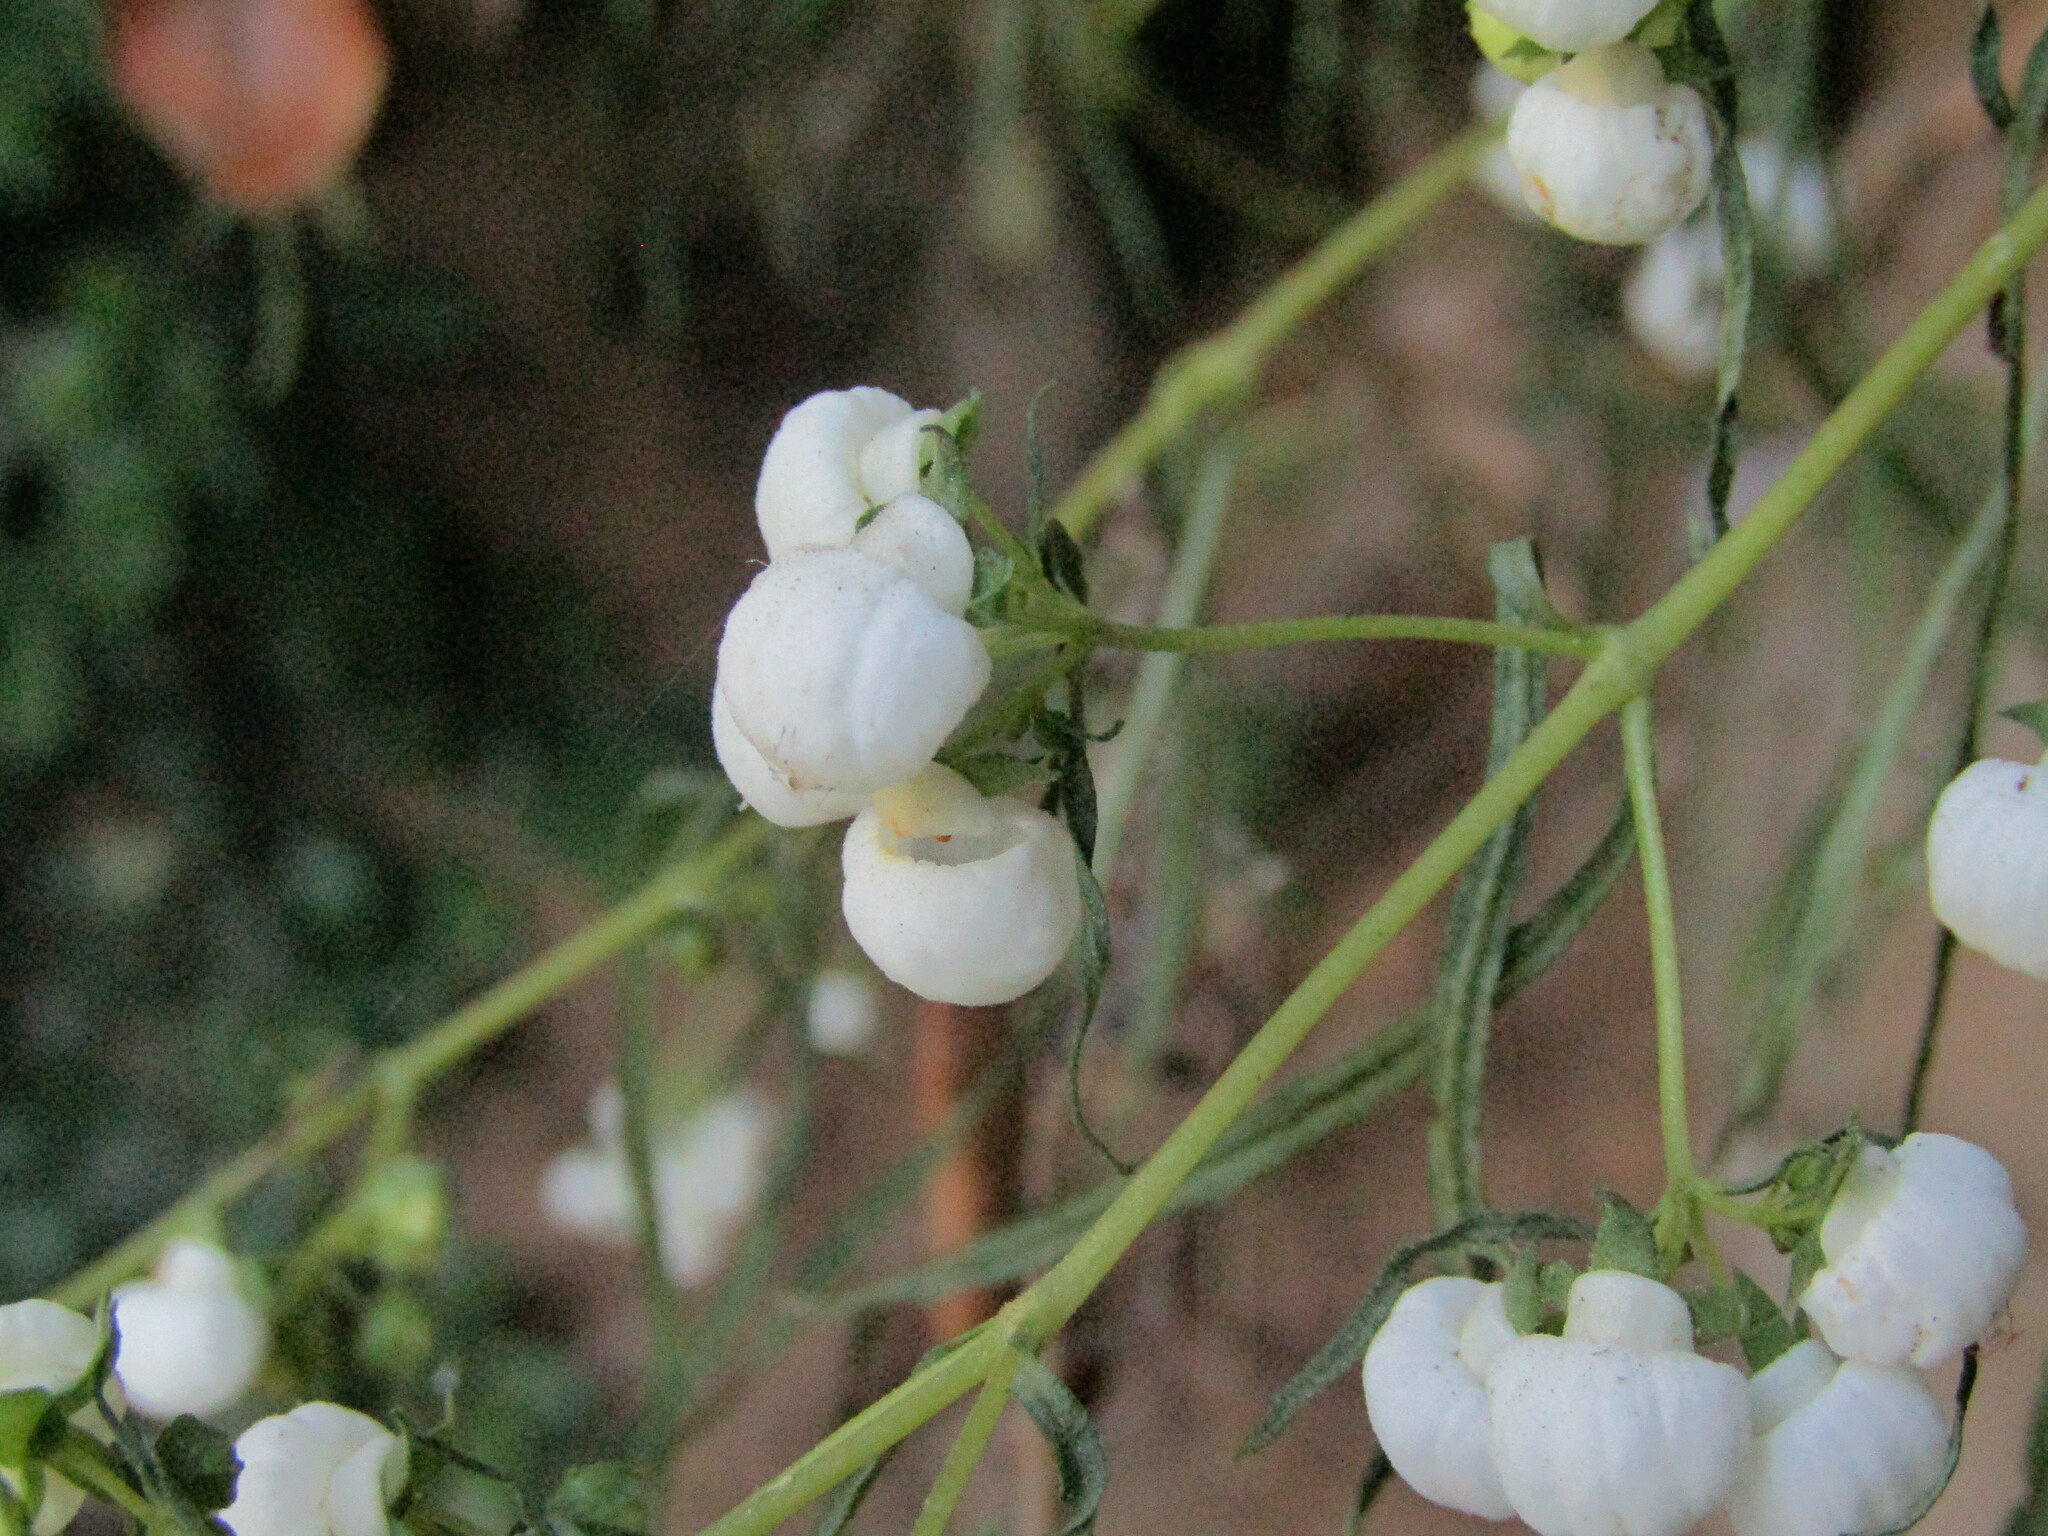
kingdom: Plantae
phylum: Tracheophyta
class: Magnoliopsida
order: Lamiales
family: Calceolariaceae
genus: Calceolaria
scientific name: Calceolaria alba
